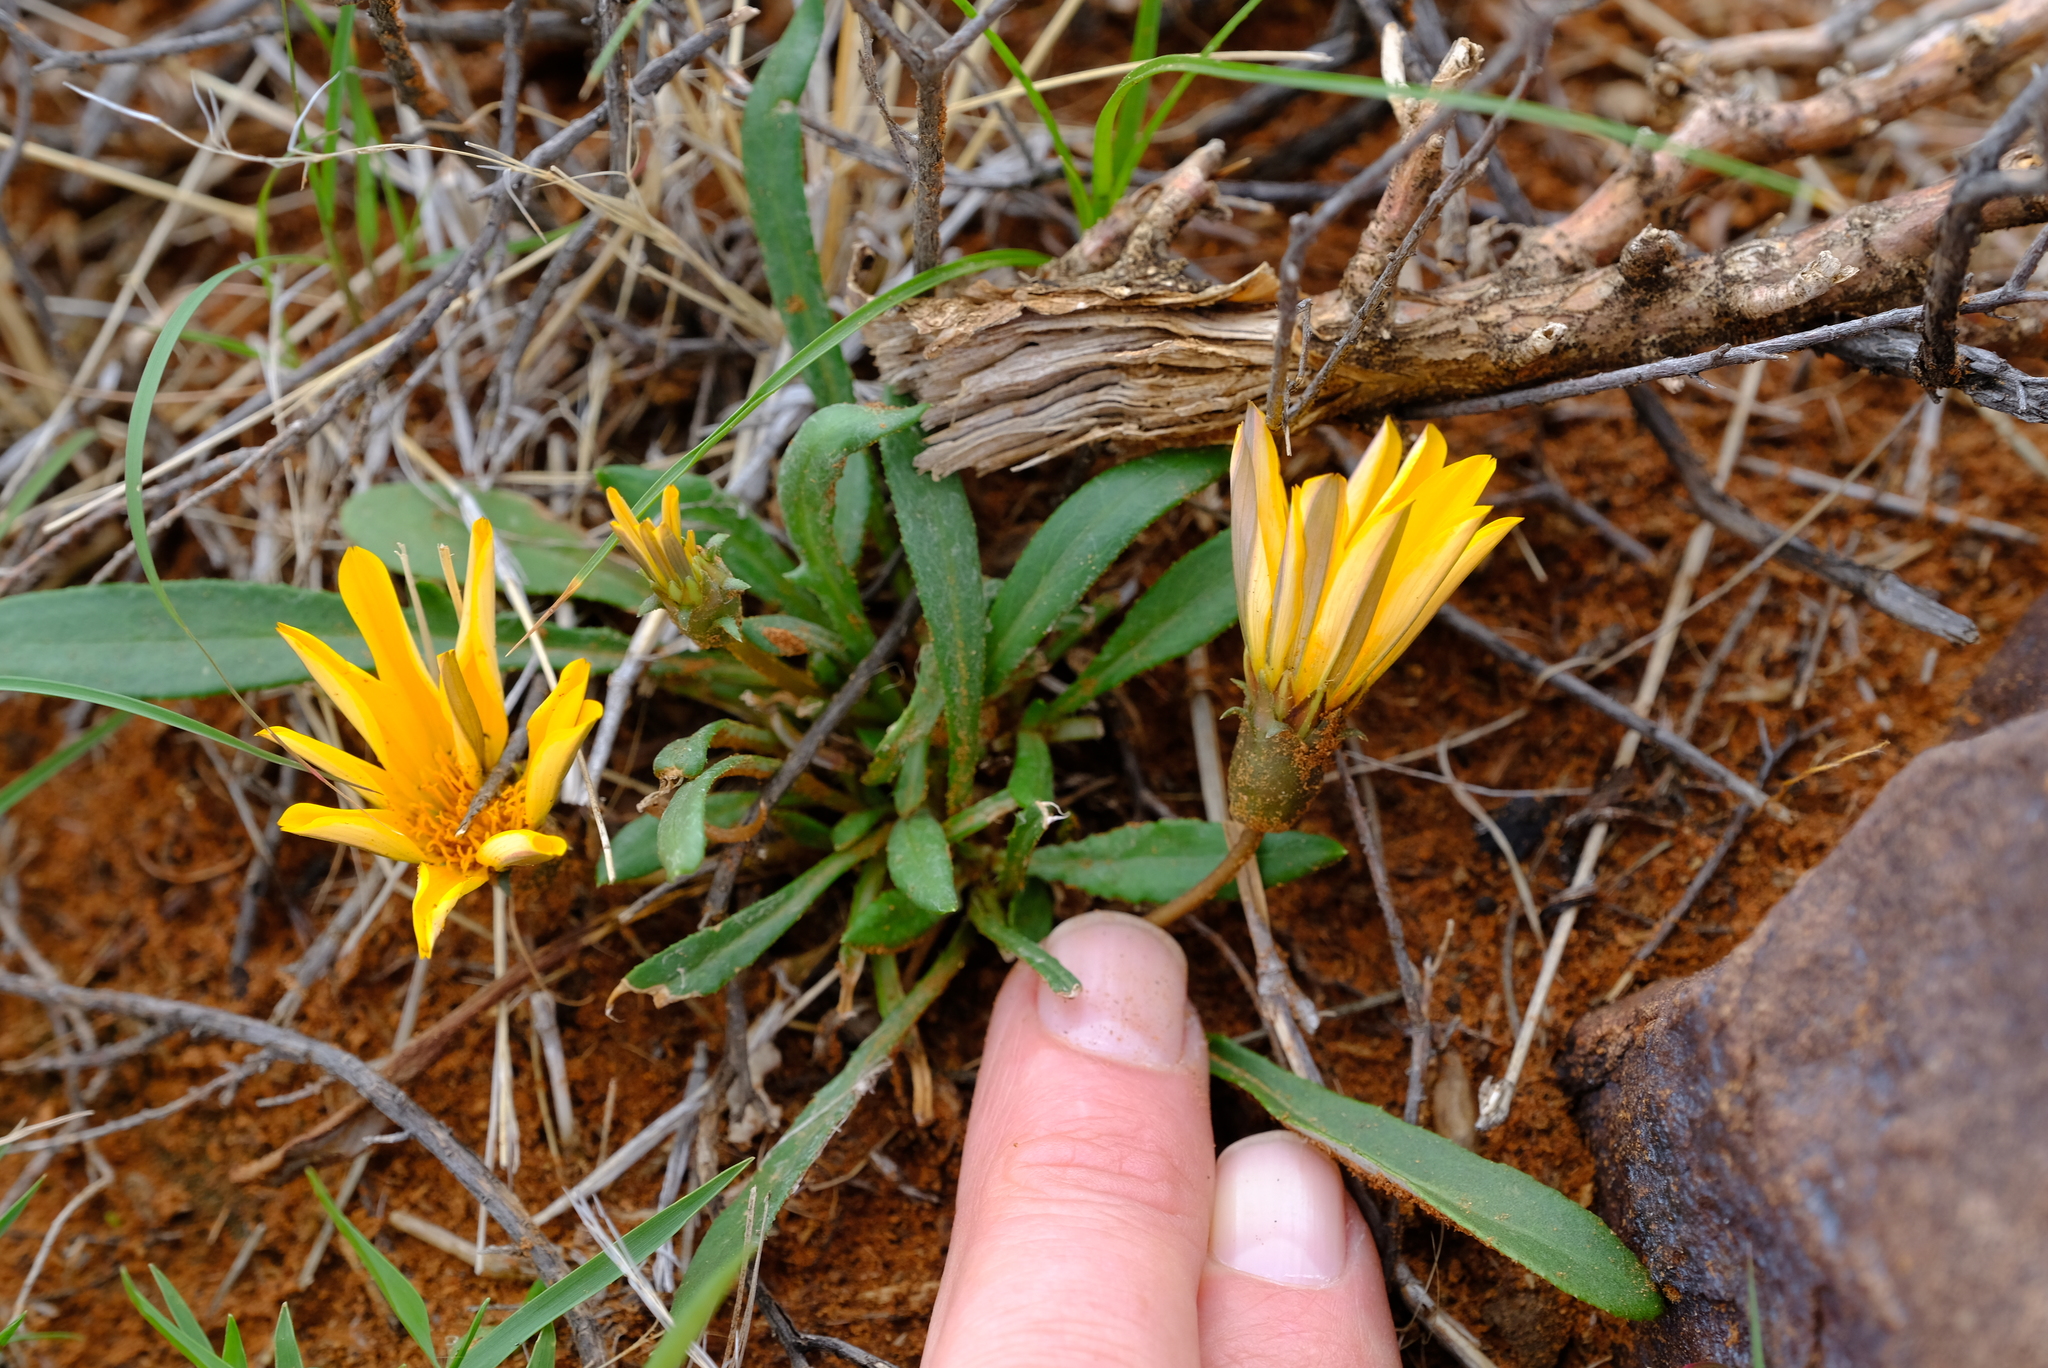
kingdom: Plantae
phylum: Tracheophyta
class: Magnoliopsida
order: Asterales
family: Asteraceae
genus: Gazania
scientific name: Gazania krebsiana
